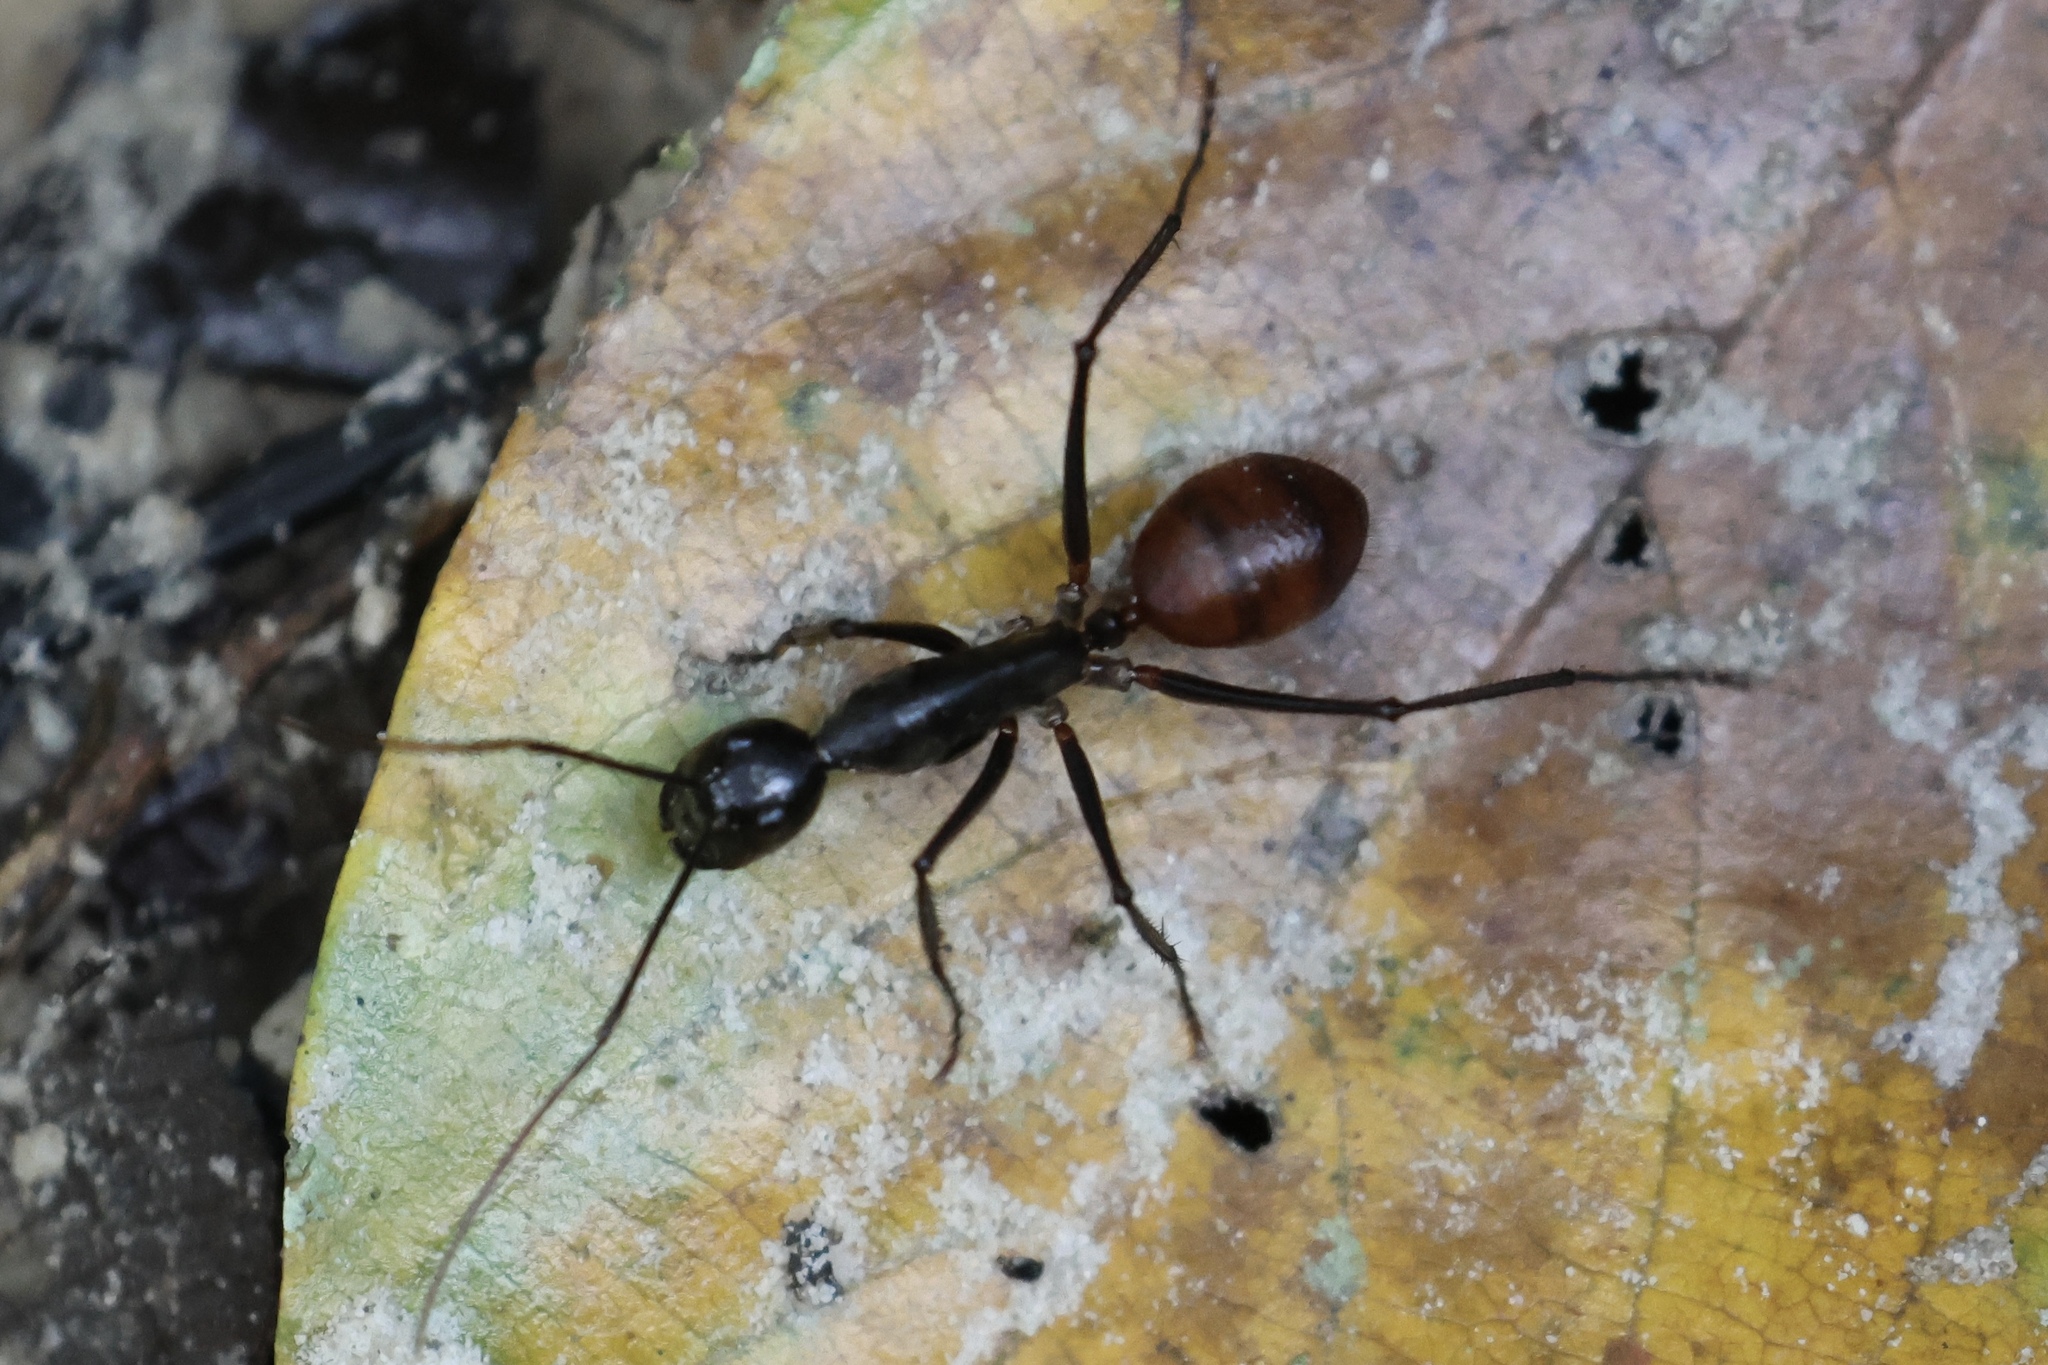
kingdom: Animalia
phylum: Arthropoda
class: Insecta
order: Hymenoptera
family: Formicidae
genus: Dinomyrmex
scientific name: Dinomyrmex
